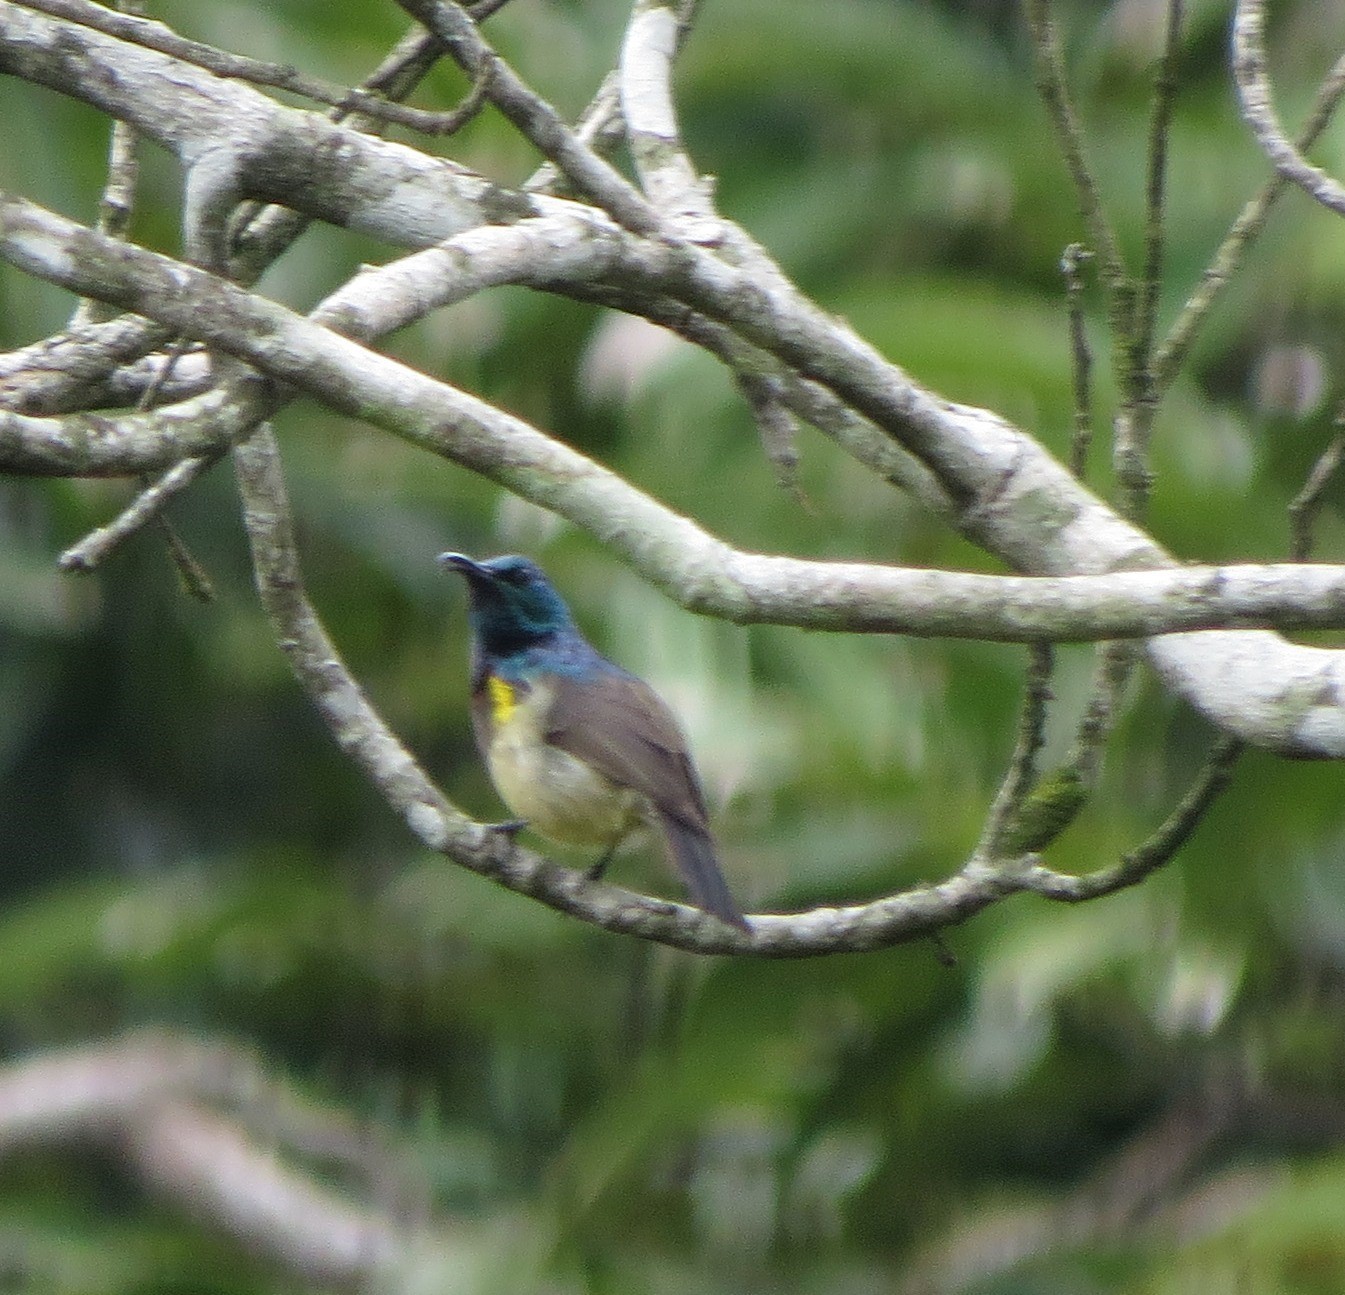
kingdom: Animalia
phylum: Chordata
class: Aves
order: Passeriformes
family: Nectariniidae
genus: Cinnyris
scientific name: Cinnyris sovimanga
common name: Souimanga sunbird
